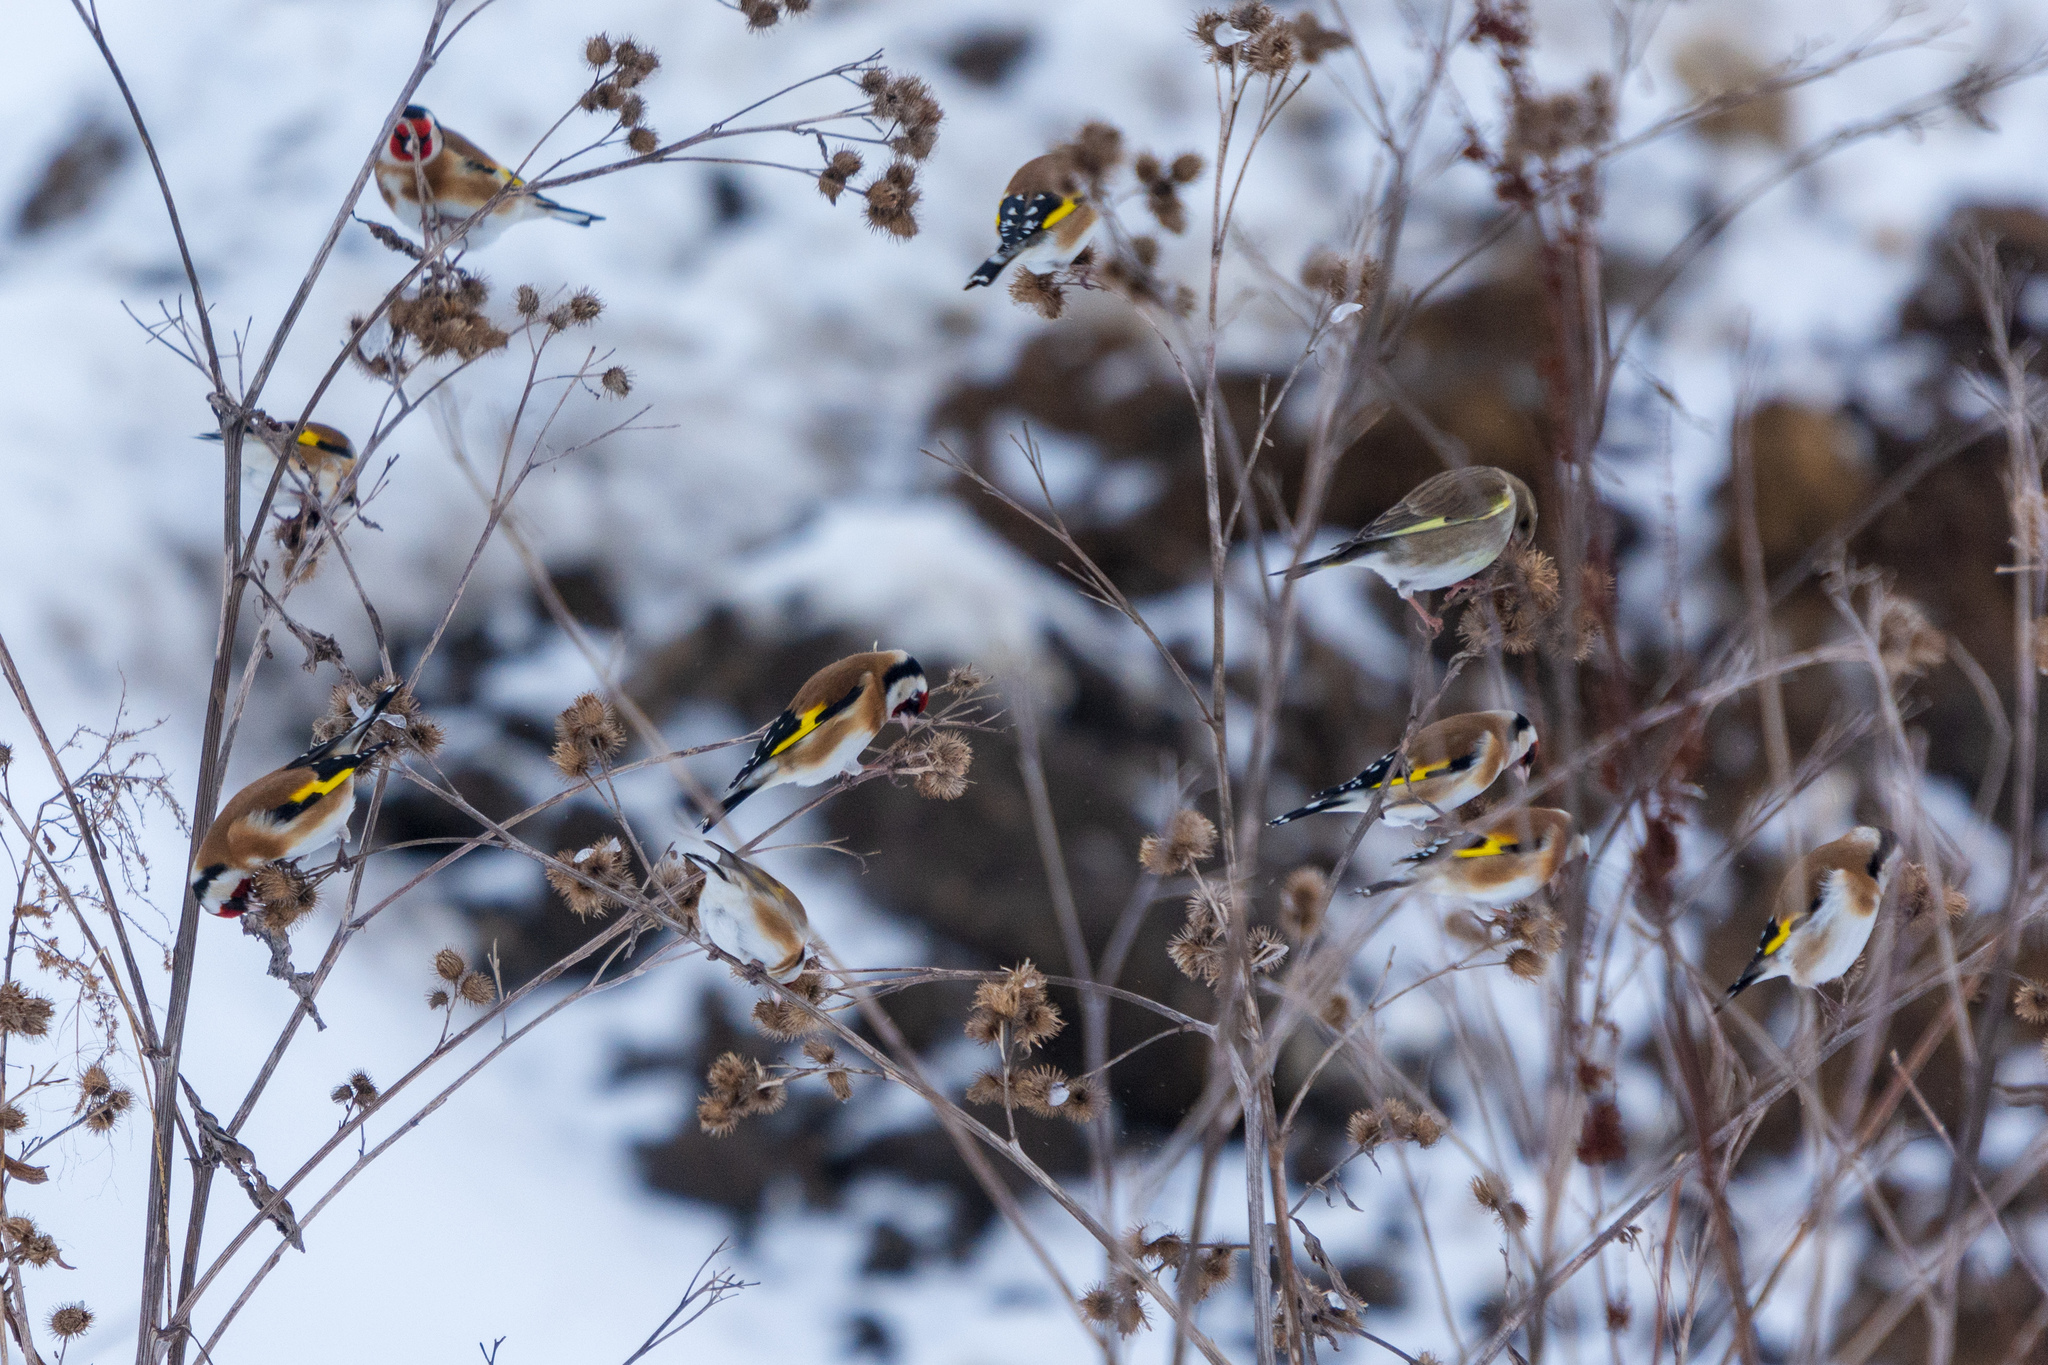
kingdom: Animalia
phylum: Chordata
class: Aves
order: Passeriformes
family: Fringillidae
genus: Carduelis
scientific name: Carduelis carduelis
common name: European goldfinch
